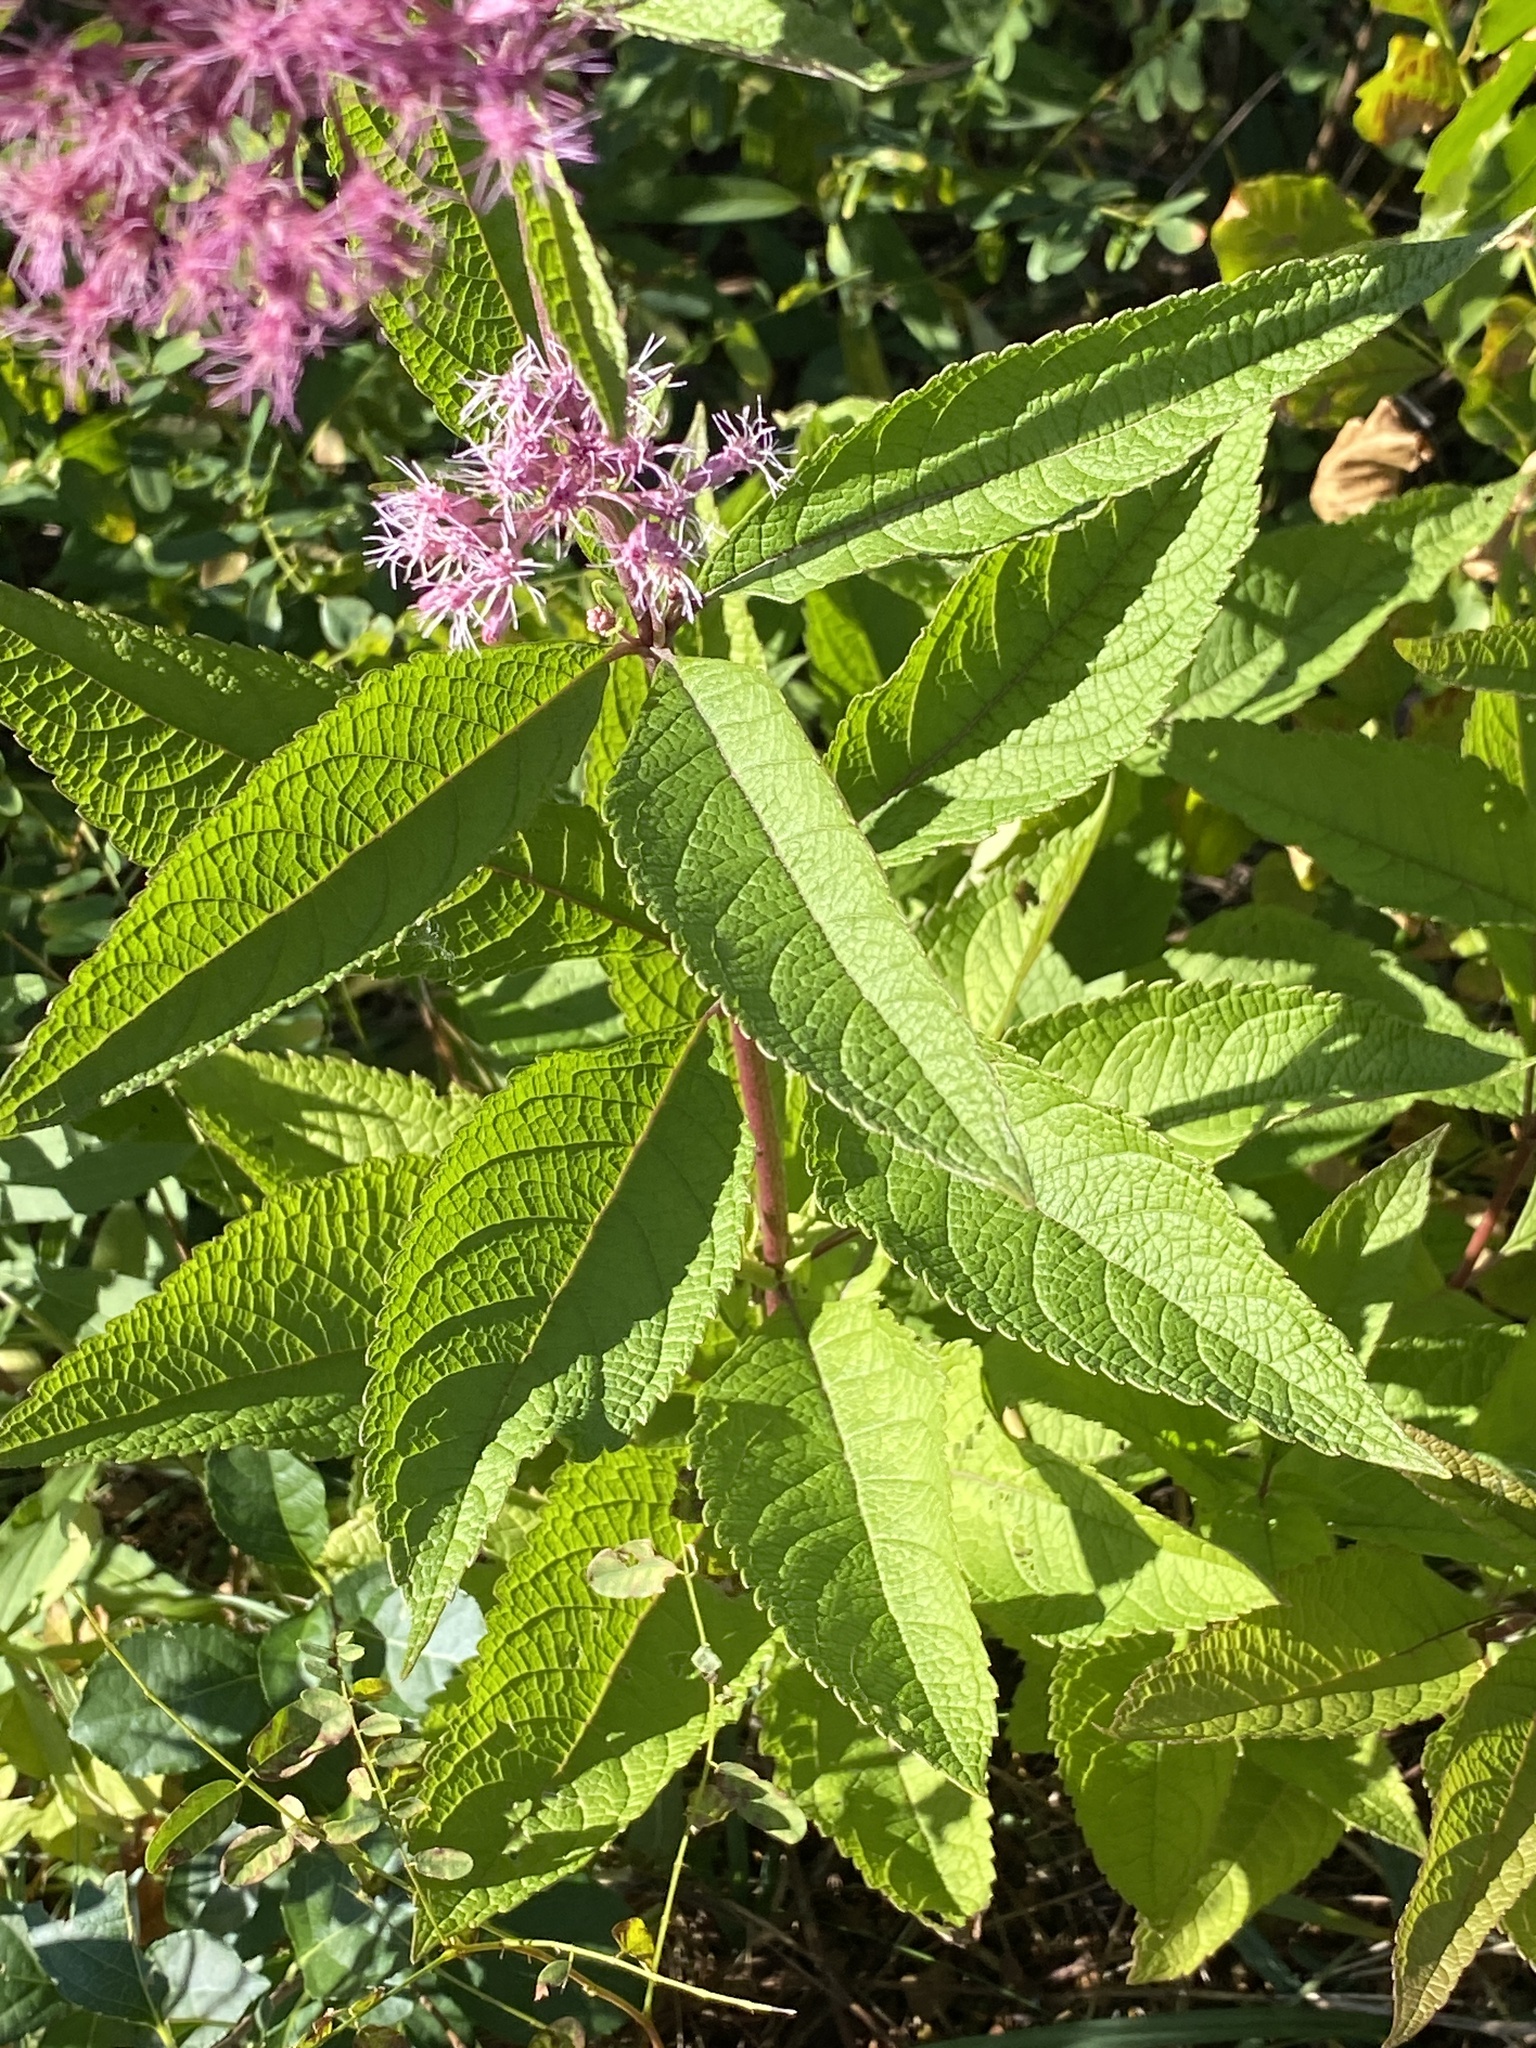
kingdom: Plantae
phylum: Tracheophyta
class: Magnoliopsida
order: Asterales
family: Asteraceae
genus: Eutrochium
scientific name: Eutrochium maculatum
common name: Spotted joe pye weed
